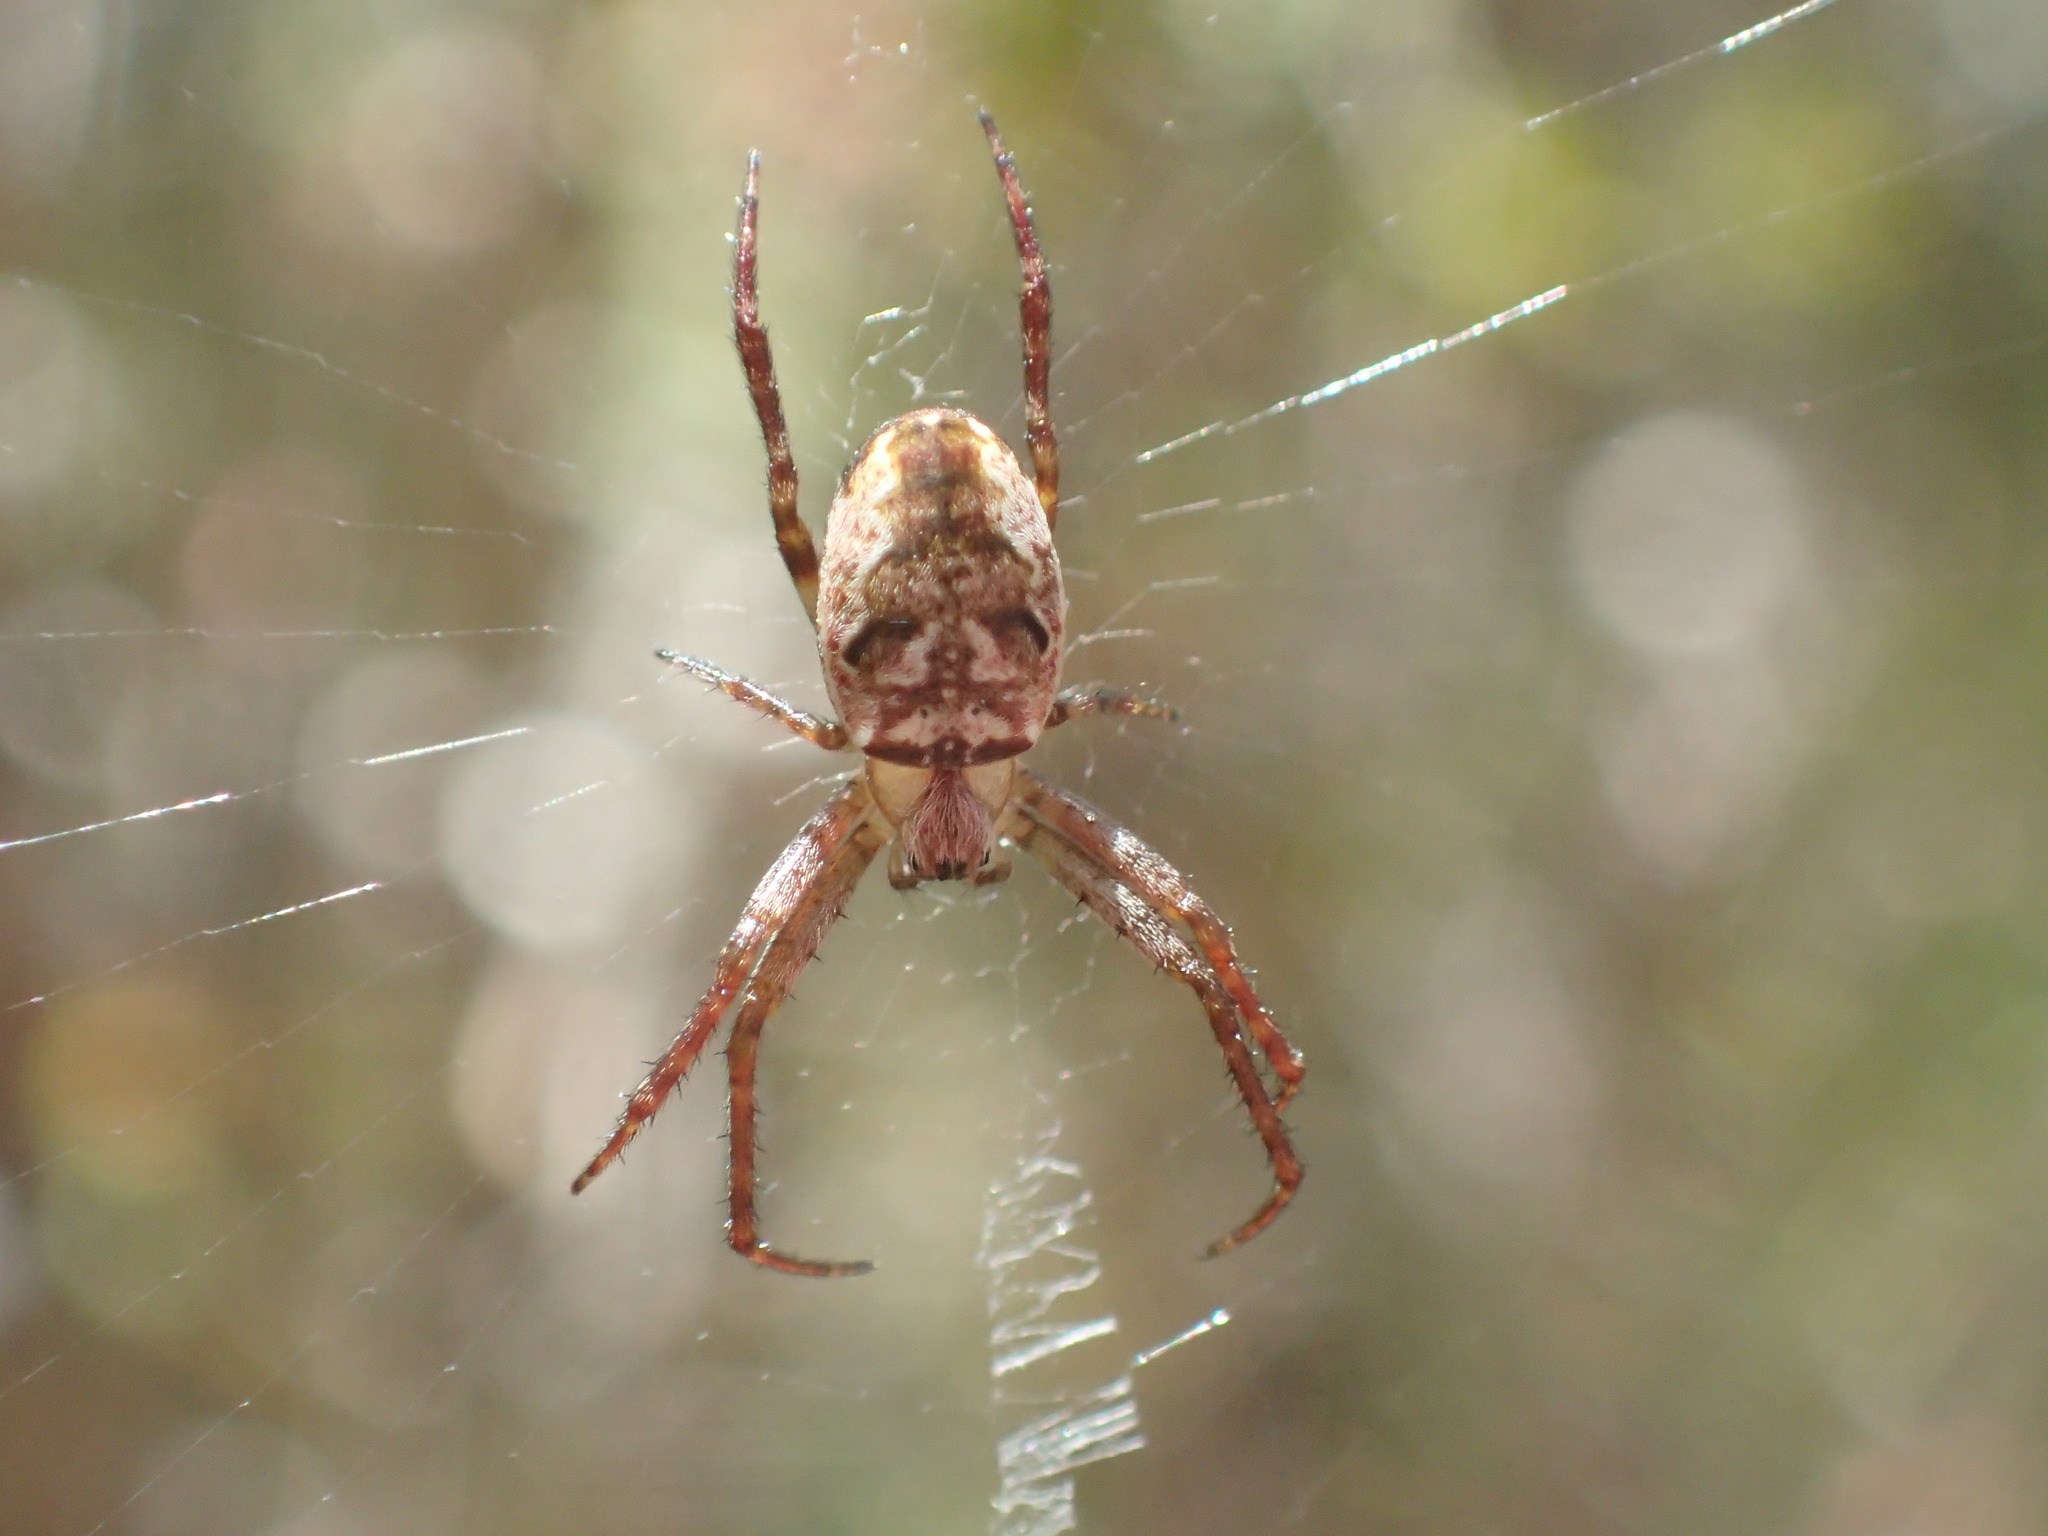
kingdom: Animalia
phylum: Arthropoda
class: Arachnida
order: Araneae
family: Araneidae
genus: Plebs
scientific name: Plebs eburnus
